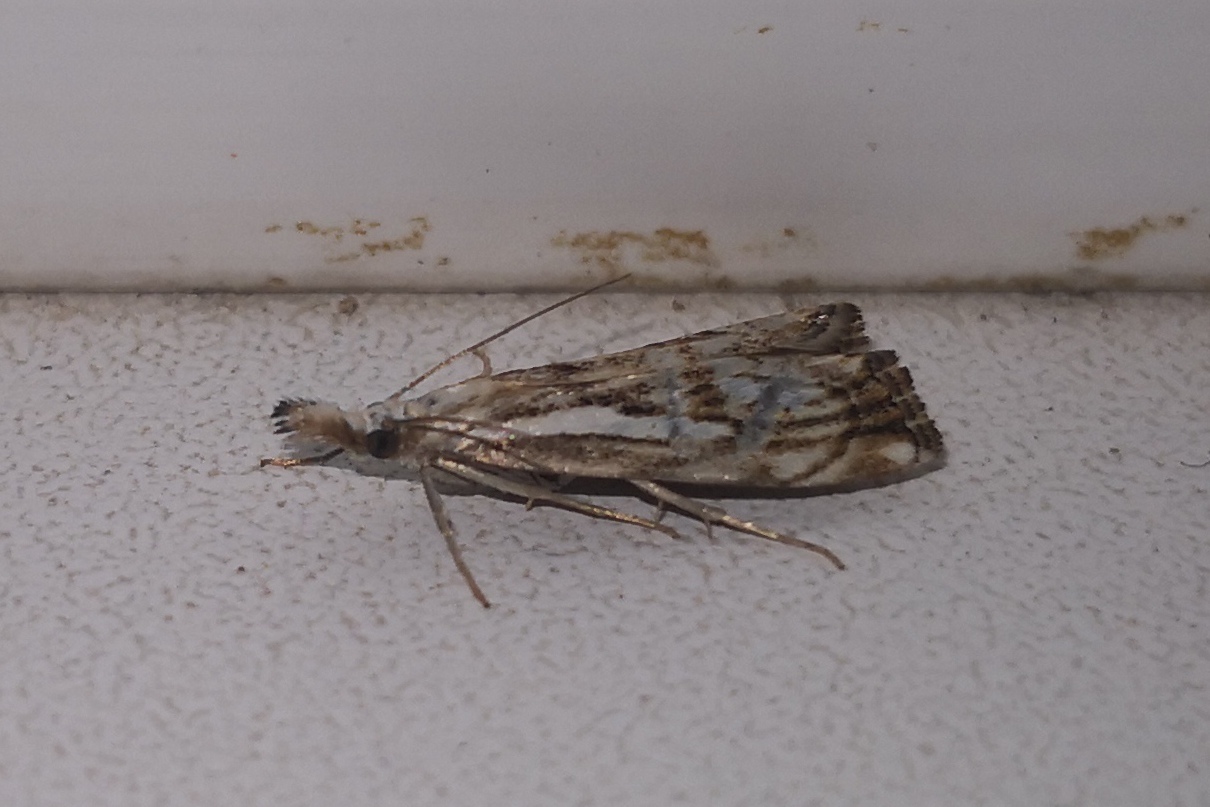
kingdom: Animalia
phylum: Arthropoda
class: Insecta
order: Lepidoptera
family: Crambidae
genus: Catoptria
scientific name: Catoptria falsella
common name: Chequered grass-veneer
